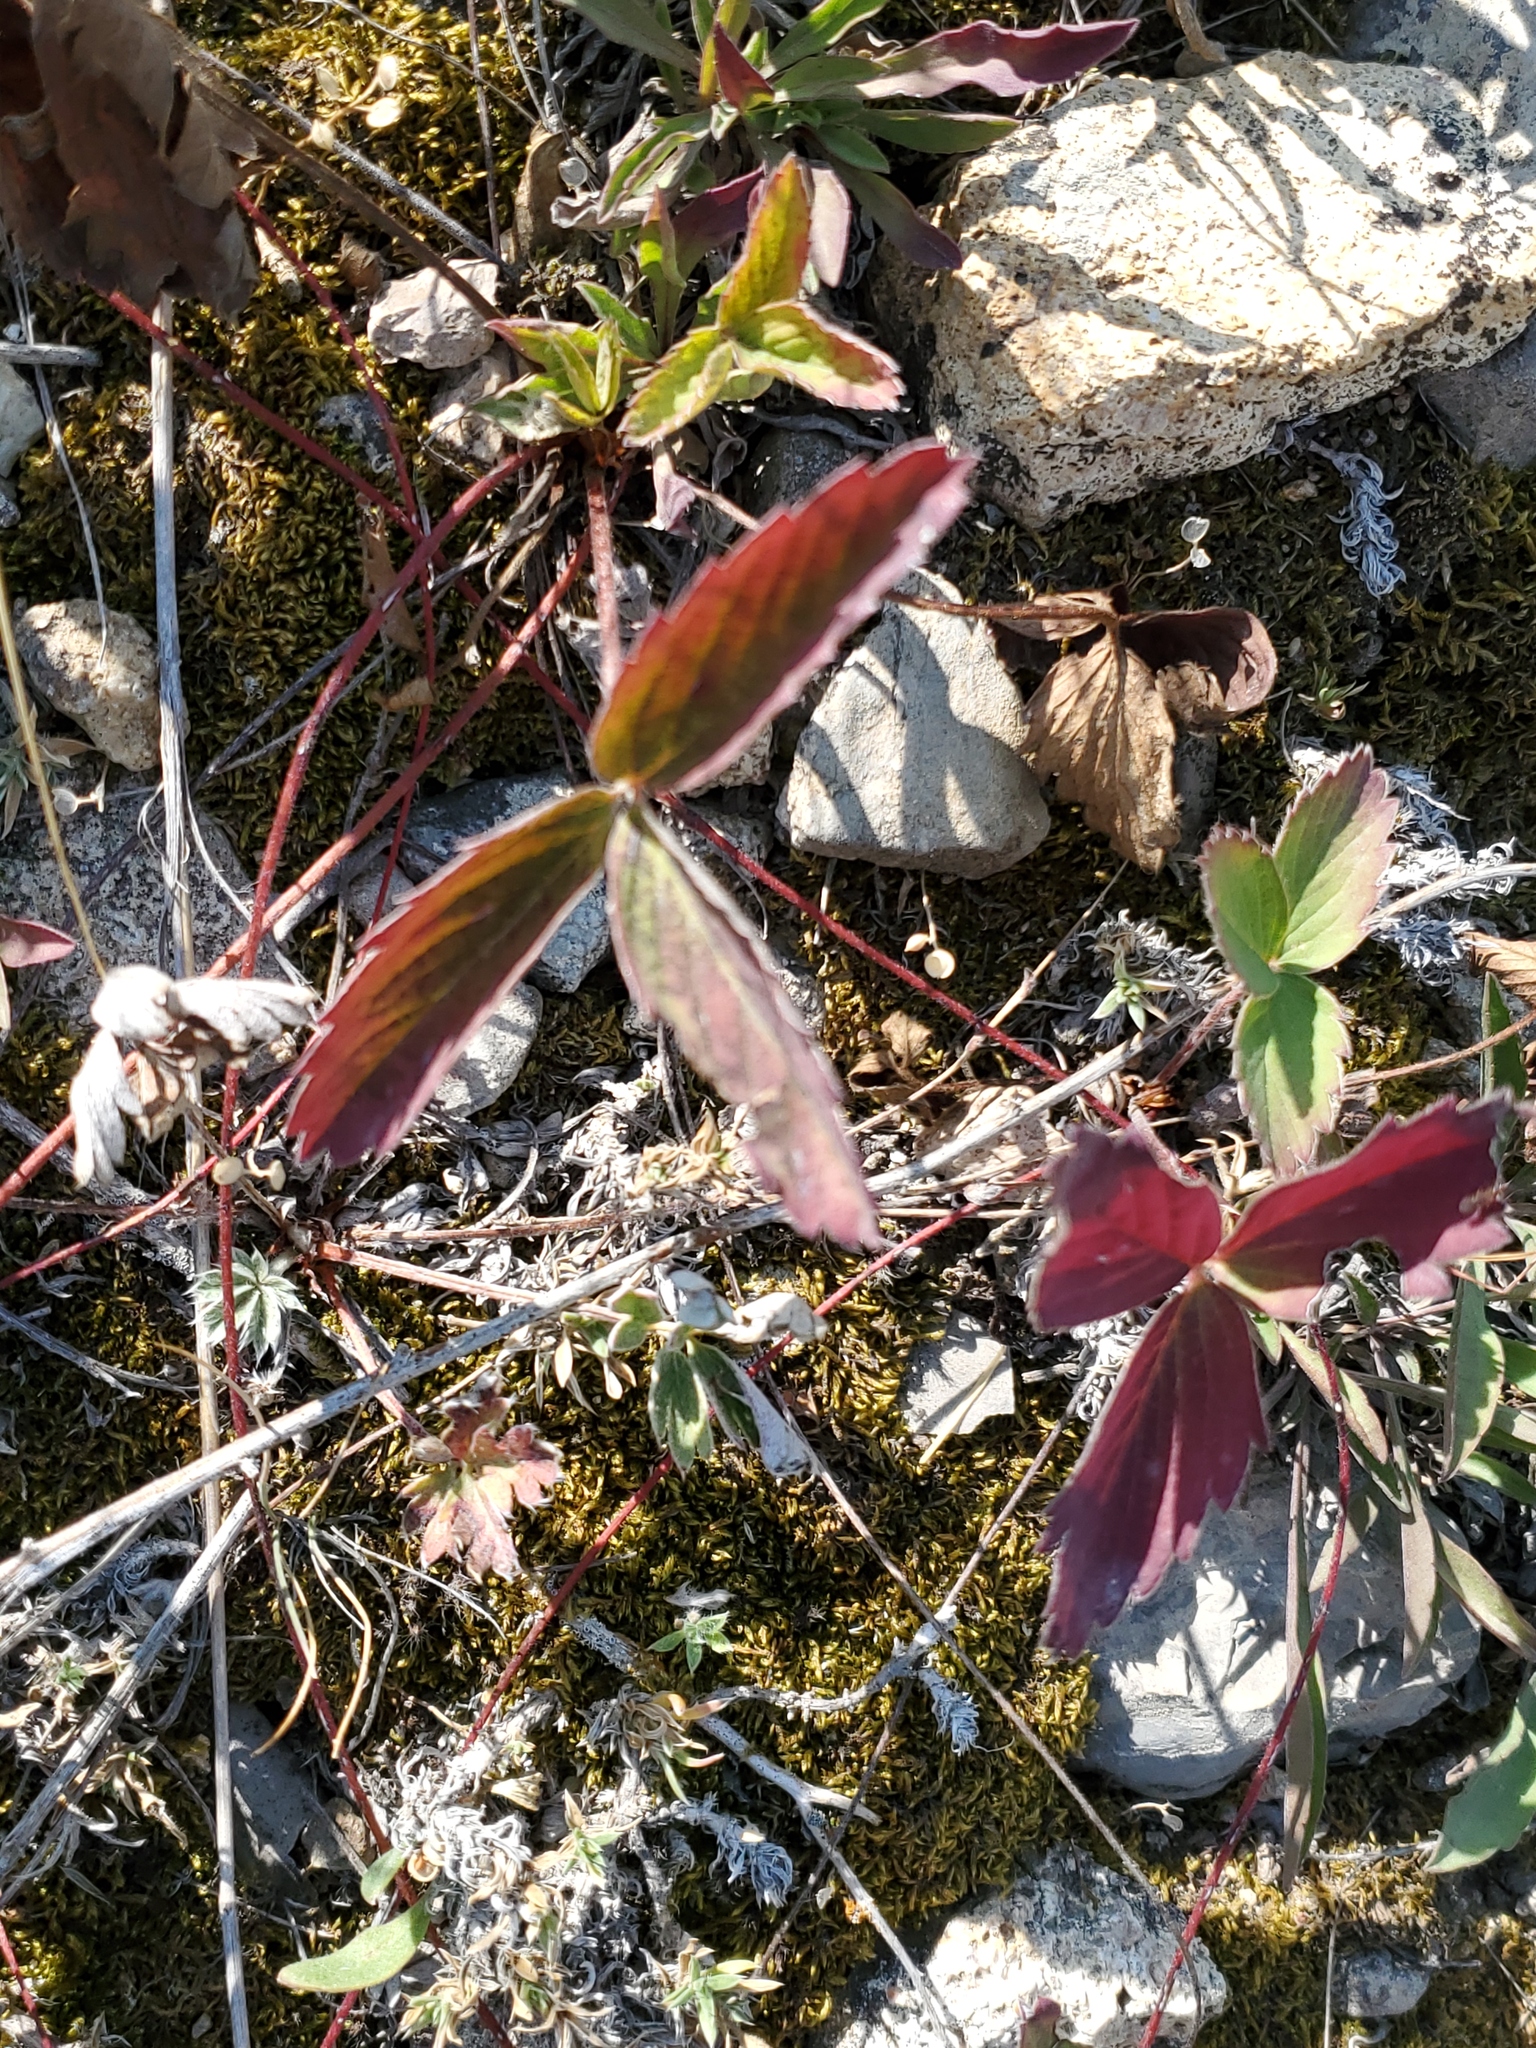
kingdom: Plantae
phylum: Tracheophyta
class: Magnoliopsida
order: Rosales
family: Rosaceae
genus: Fragaria
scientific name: Fragaria virginiana
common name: Thickleaved wild strawberry
